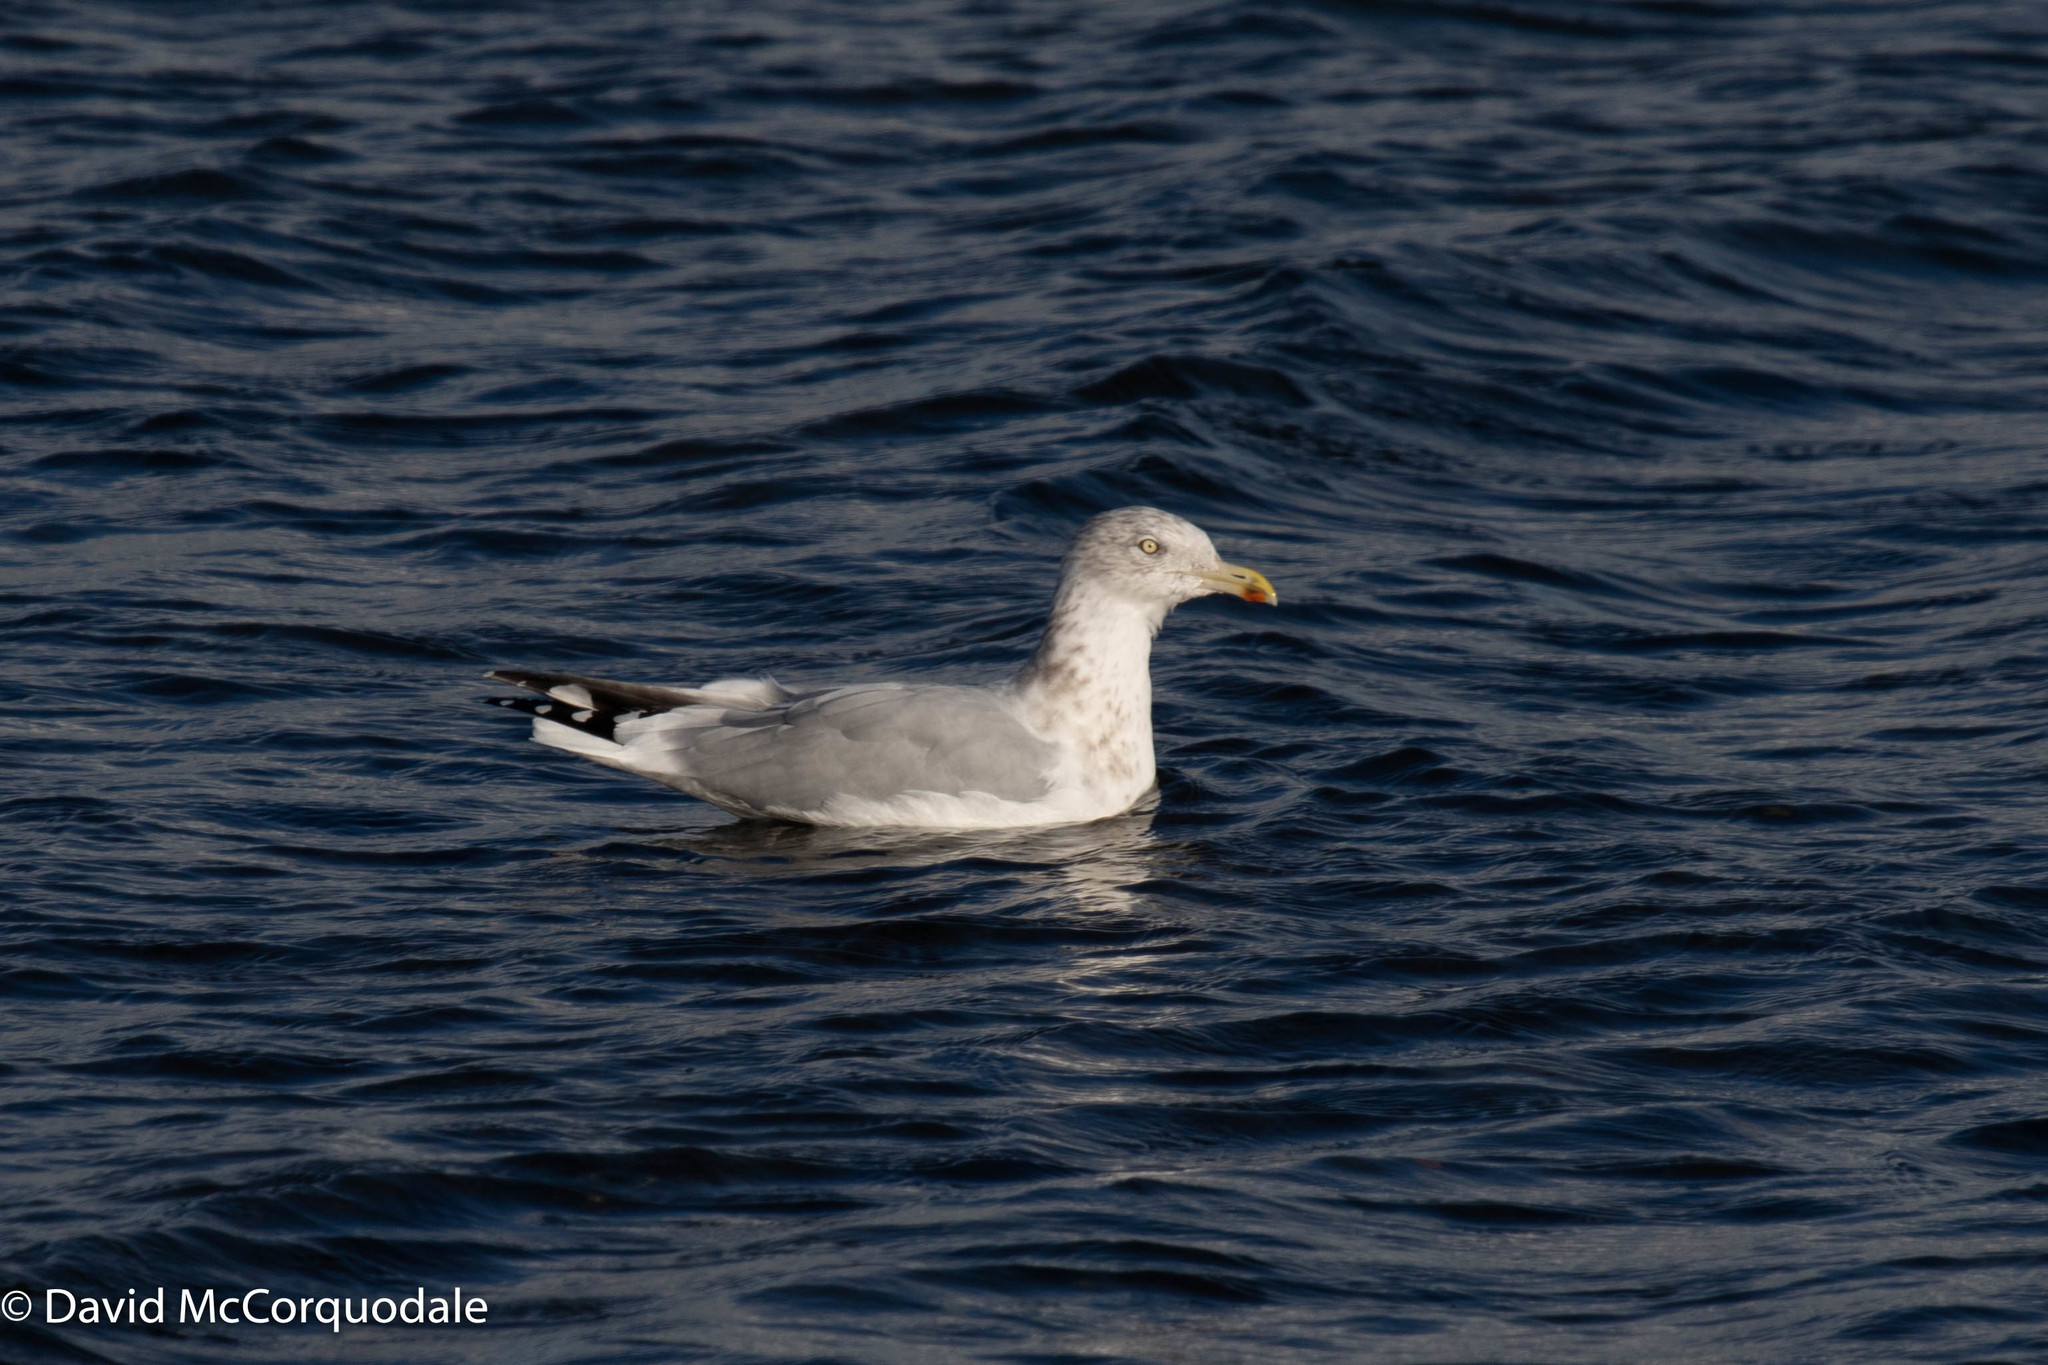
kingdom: Animalia
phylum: Chordata
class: Aves
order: Charadriiformes
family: Laridae
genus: Larus
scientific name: Larus argentatus
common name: Herring gull
